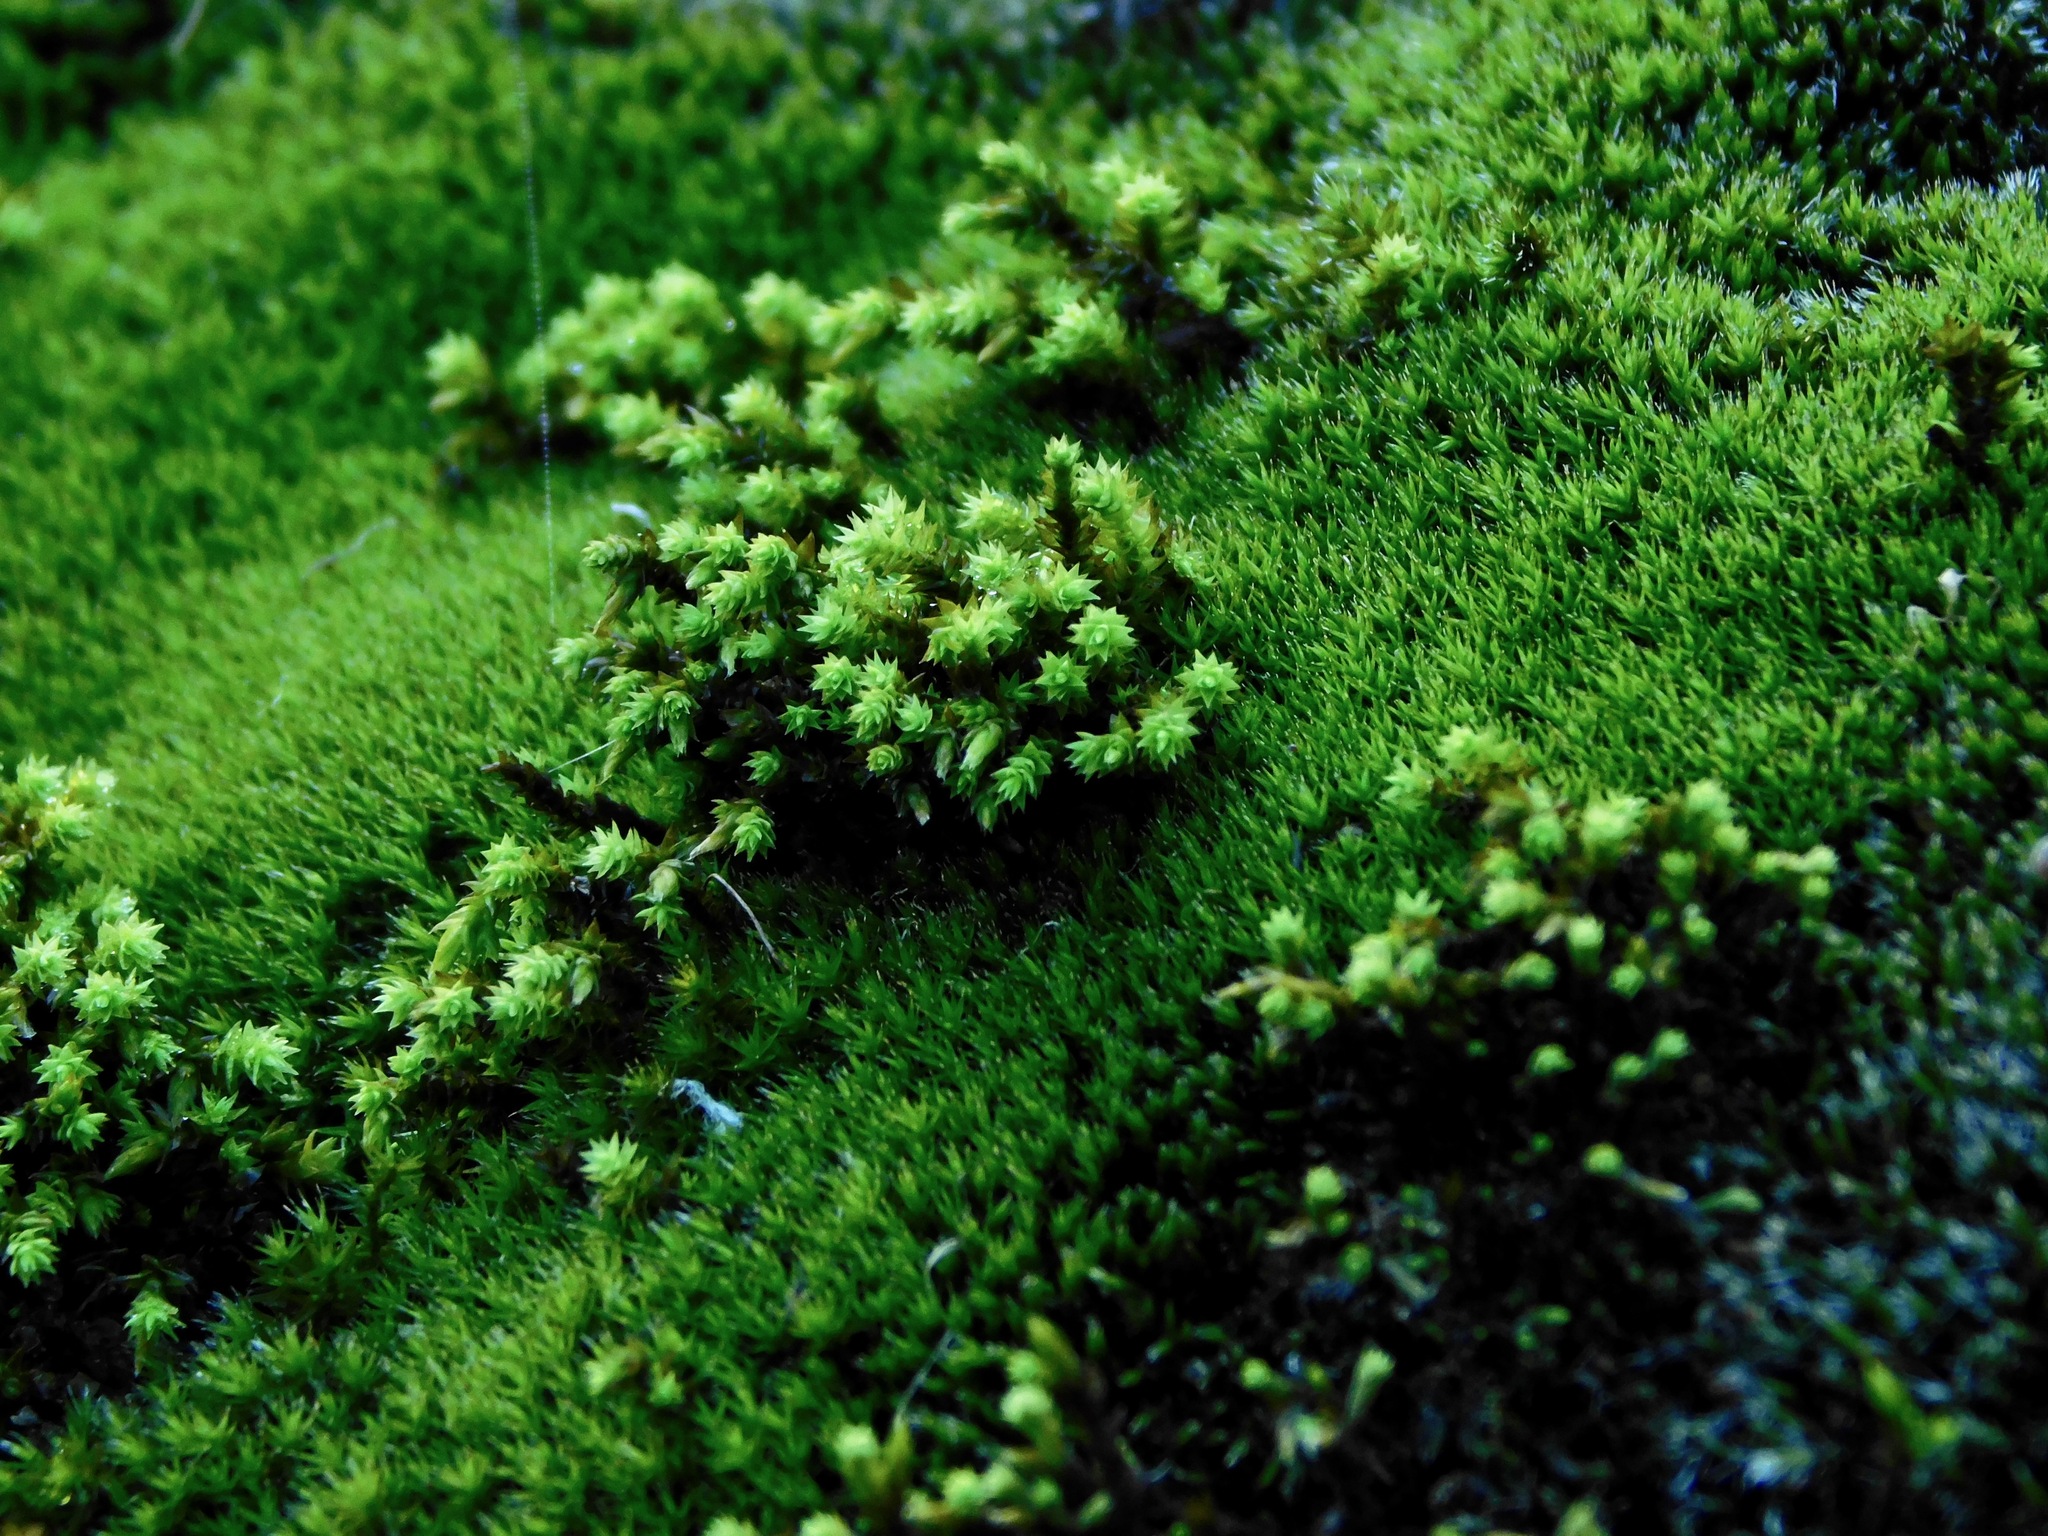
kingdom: Plantae
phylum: Bryophyta
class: Bryopsida
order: Hedwigiales
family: Hedwigiaceae
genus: Hedwigia
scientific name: Hedwigia ciliata
